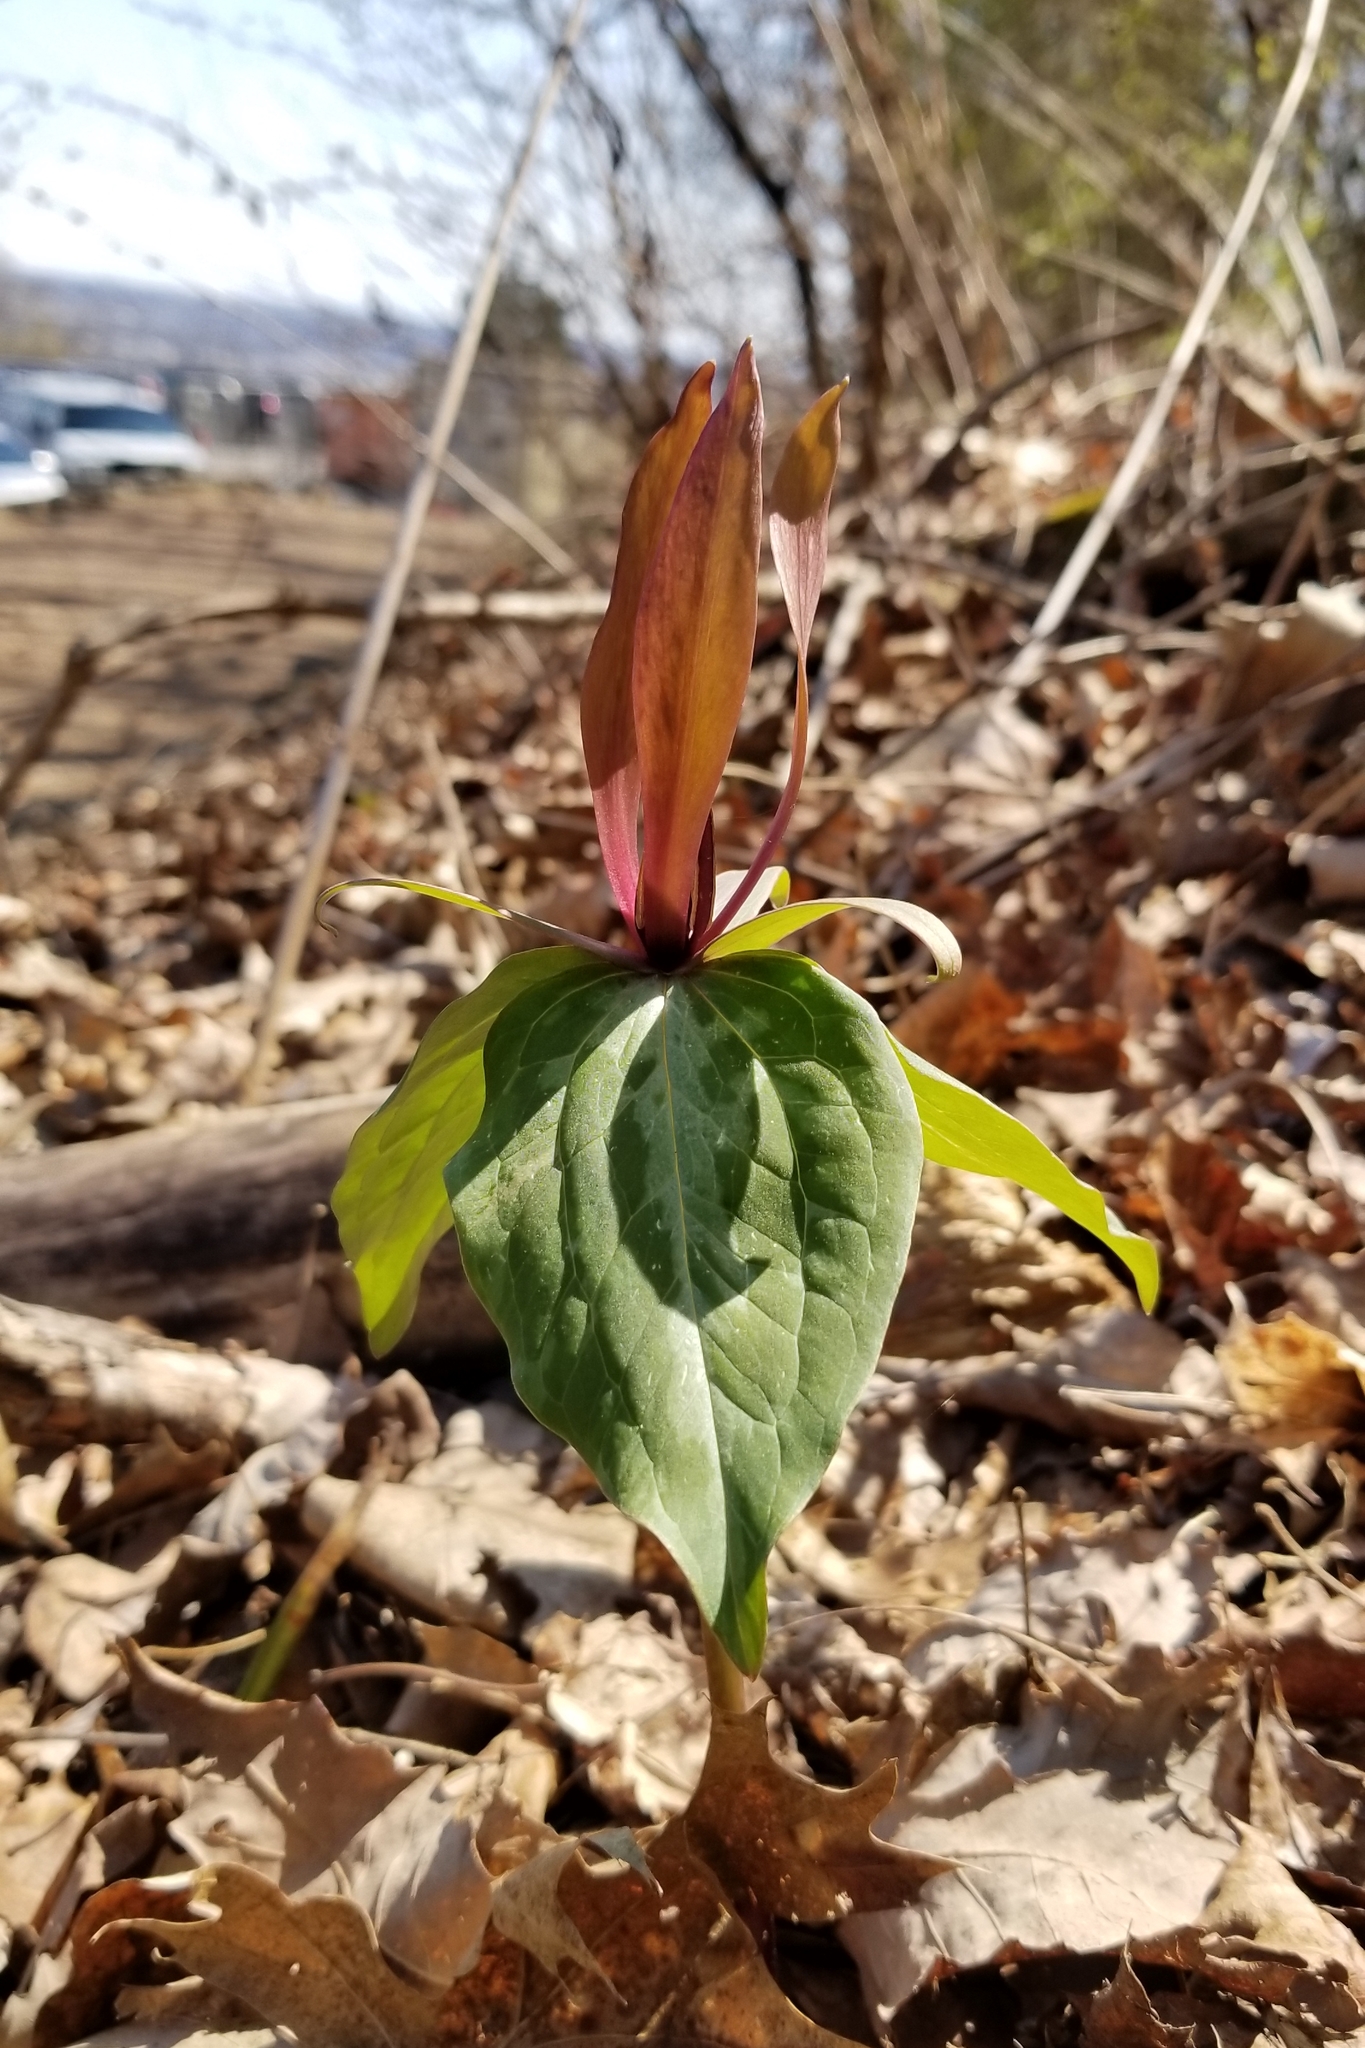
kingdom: Plantae
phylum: Tracheophyta
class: Liliopsida
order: Liliales
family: Melanthiaceae
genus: Trillium
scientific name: Trillium cuneatum
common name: Cuneate trillium
